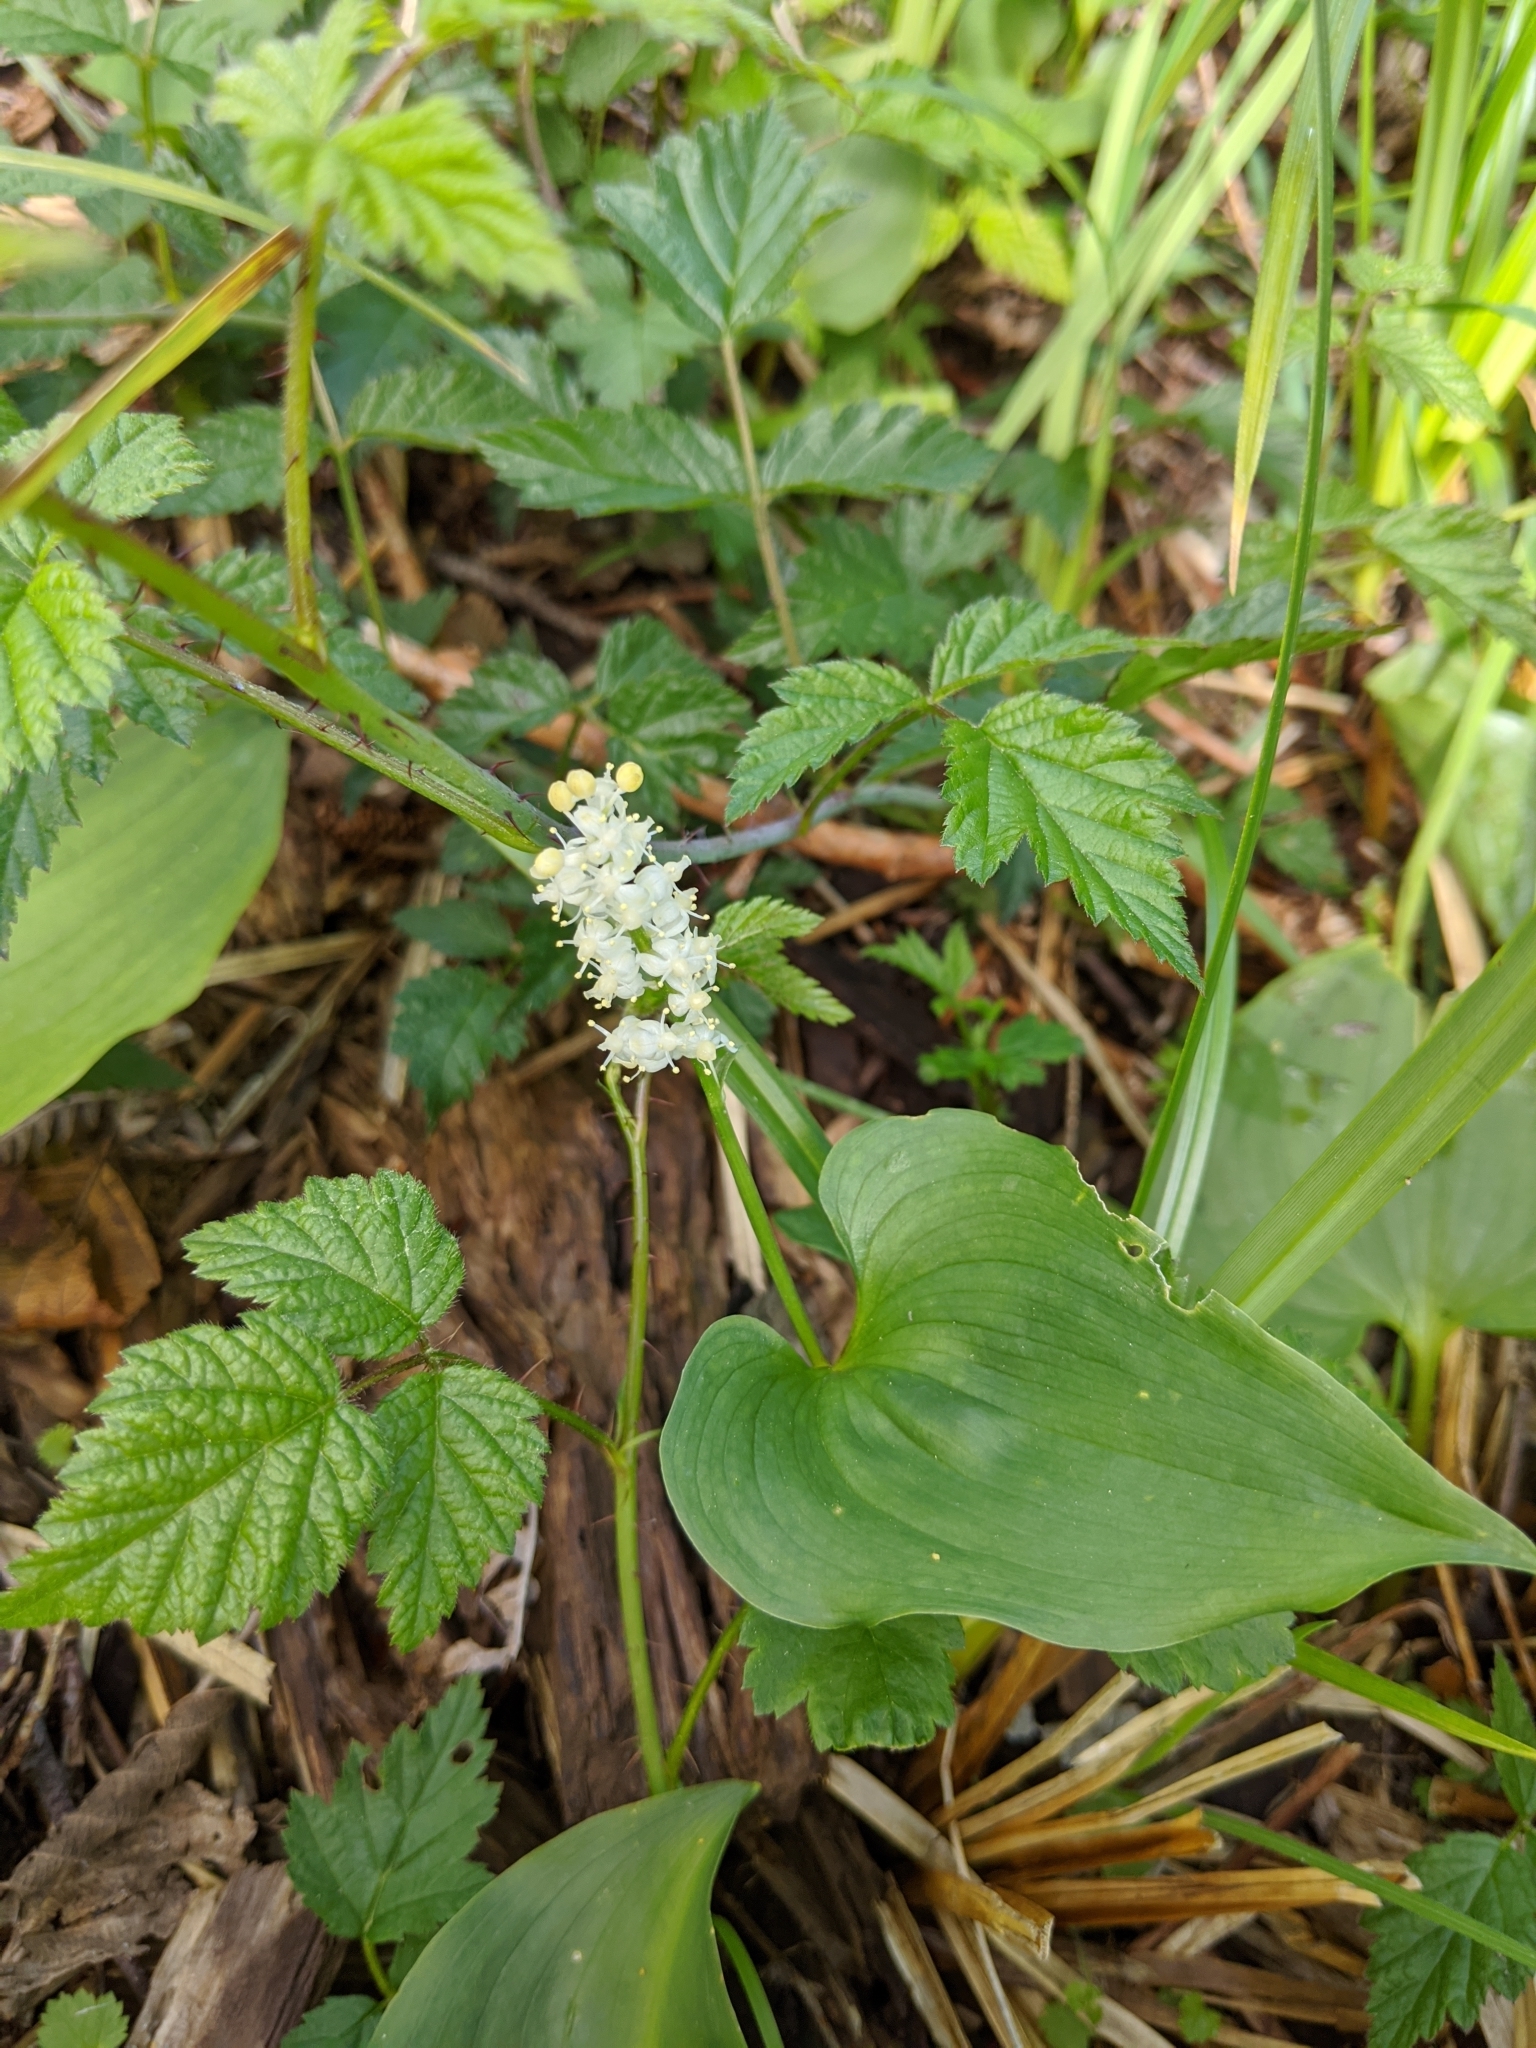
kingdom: Plantae
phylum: Tracheophyta
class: Liliopsida
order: Asparagales
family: Asparagaceae
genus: Maianthemum
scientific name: Maianthemum dilatatum
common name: False lily-of-the-valley
